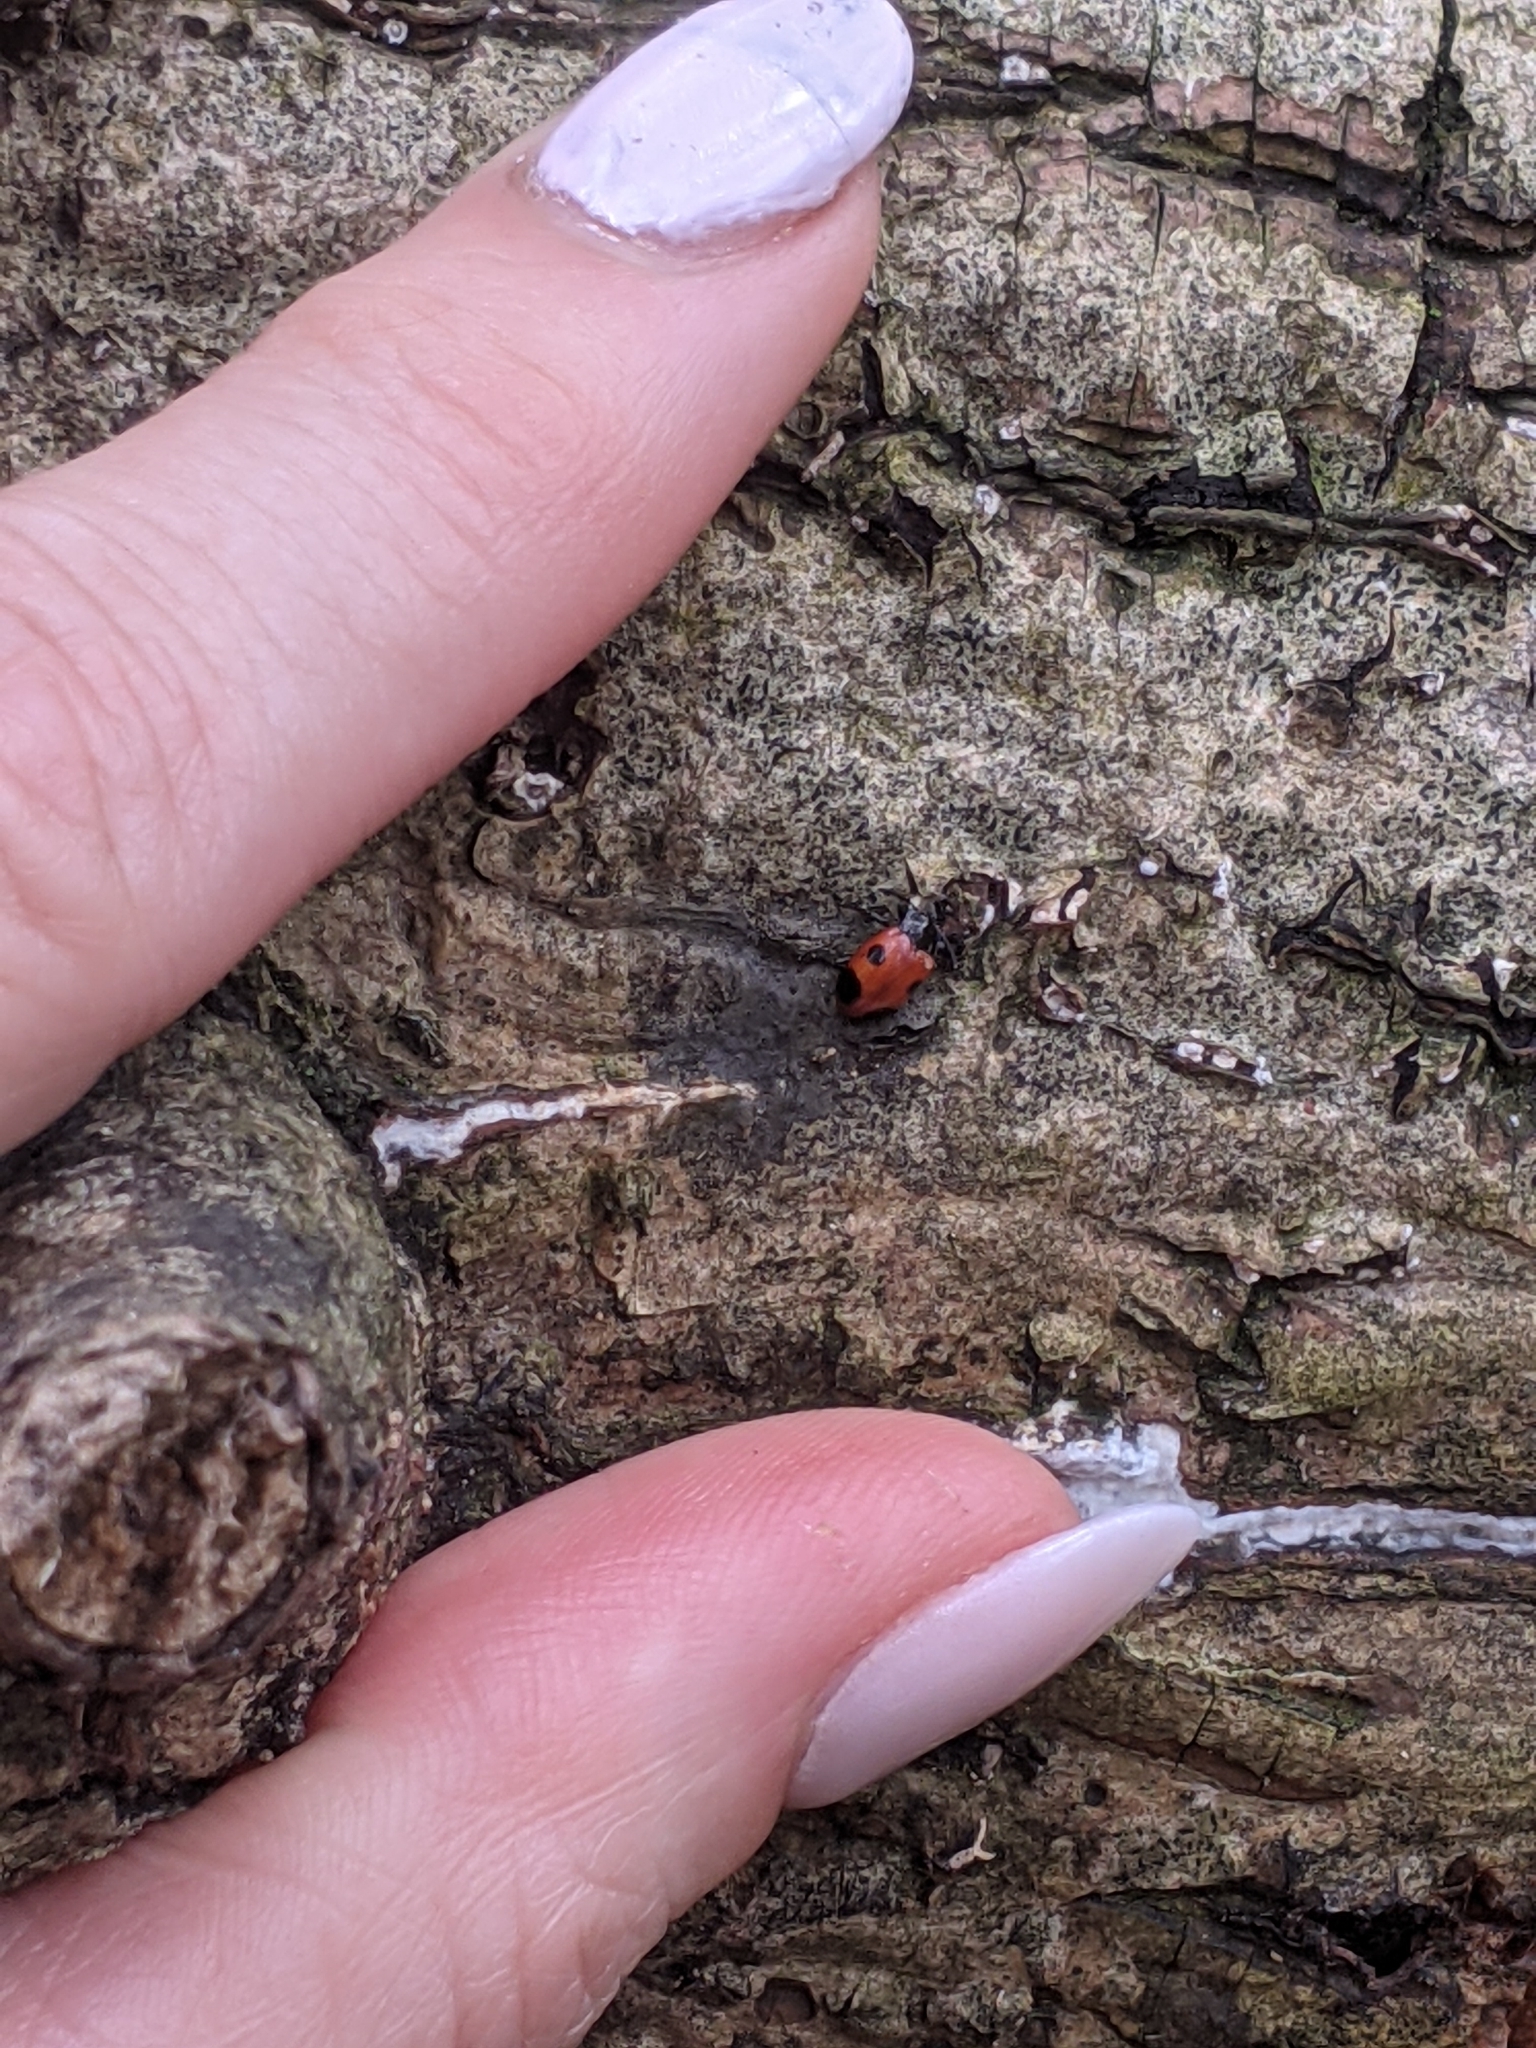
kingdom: Animalia
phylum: Arthropoda
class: Insecta
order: Coleoptera
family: Endomychidae
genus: Endomychus
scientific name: Endomychus biguttatus
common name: Handsome fungus beetle
